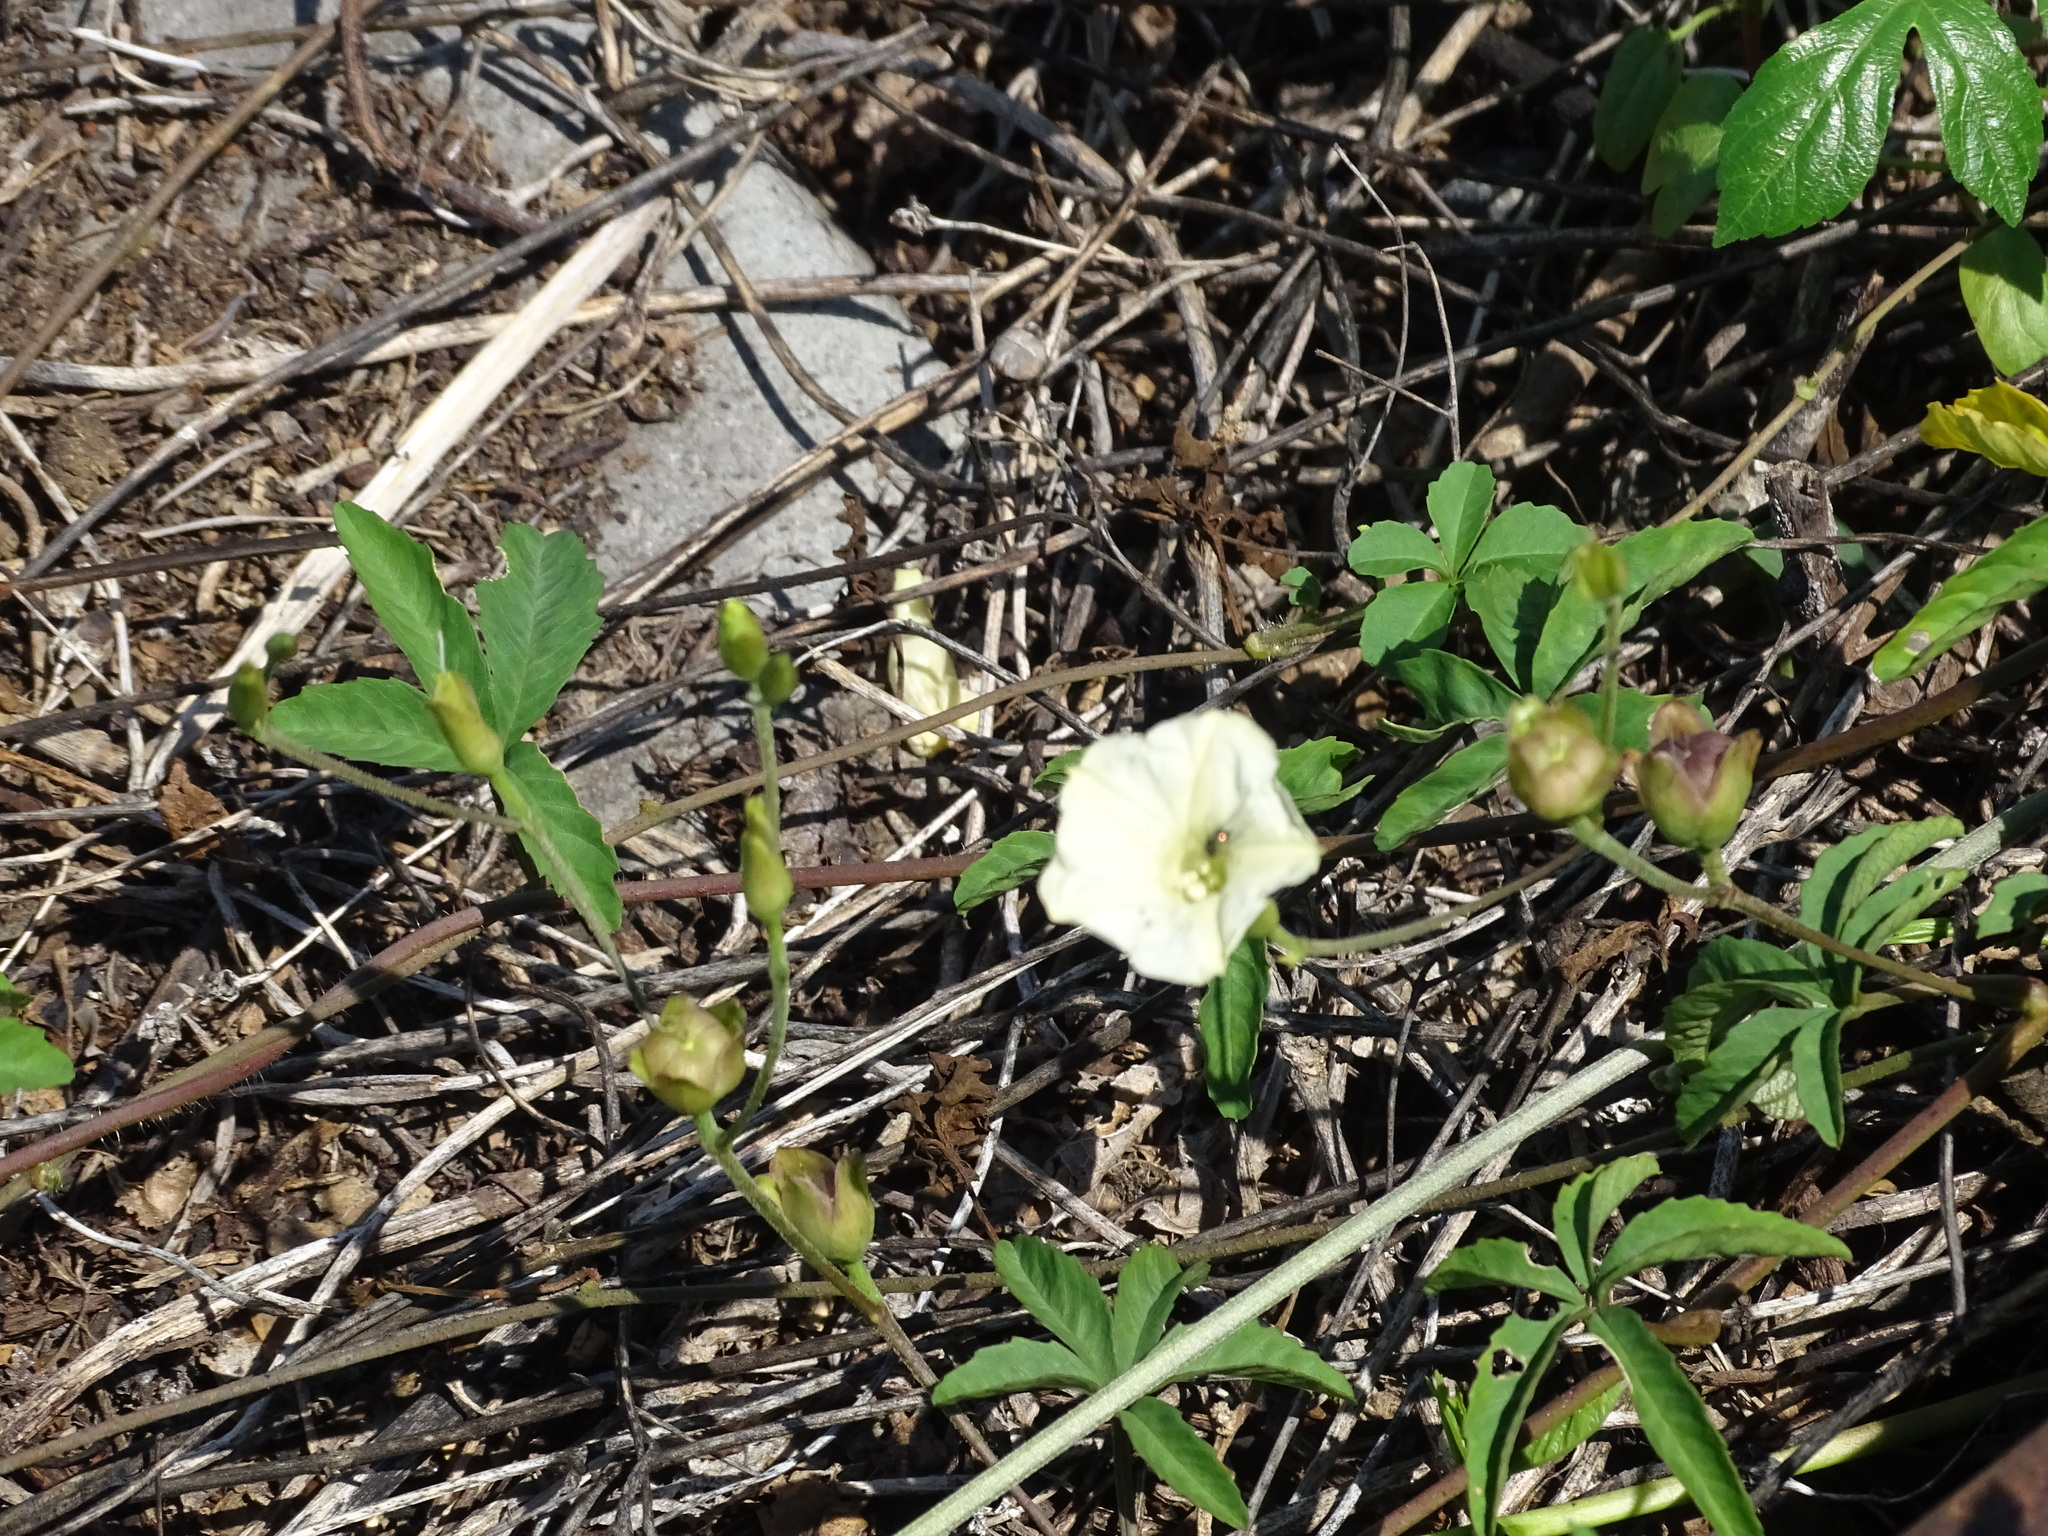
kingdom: Plantae
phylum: Tracheophyta
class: Magnoliopsida
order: Solanales
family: Convolvulaceae
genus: Distimake
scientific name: Distimake quinquefolius
